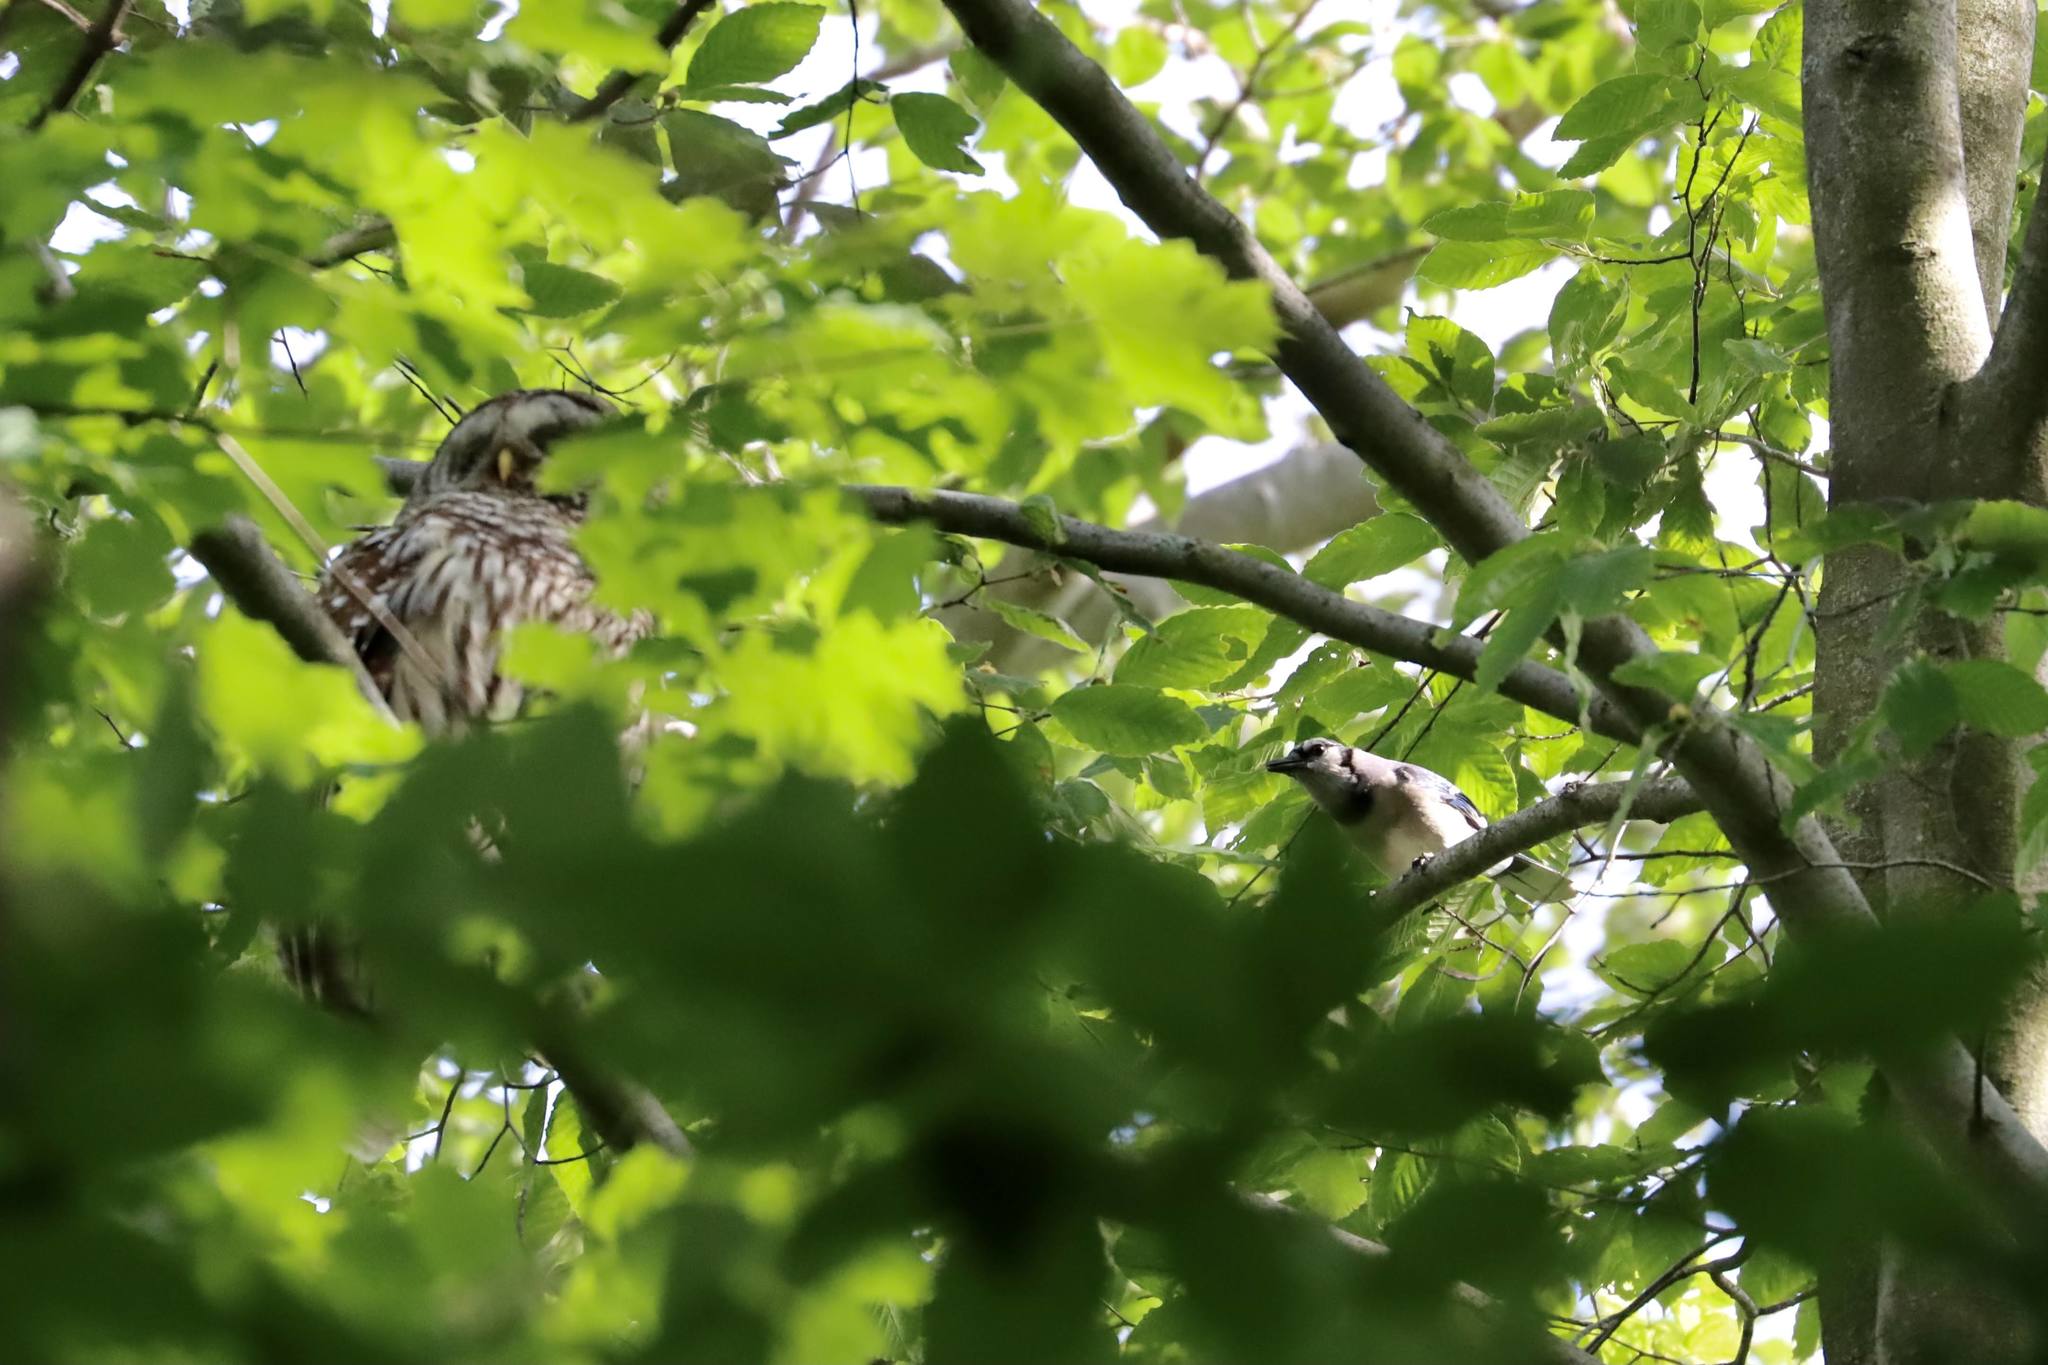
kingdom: Animalia
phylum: Chordata
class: Aves
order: Passeriformes
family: Corvidae
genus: Cyanocitta
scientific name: Cyanocitta cristata
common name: Blue jay
